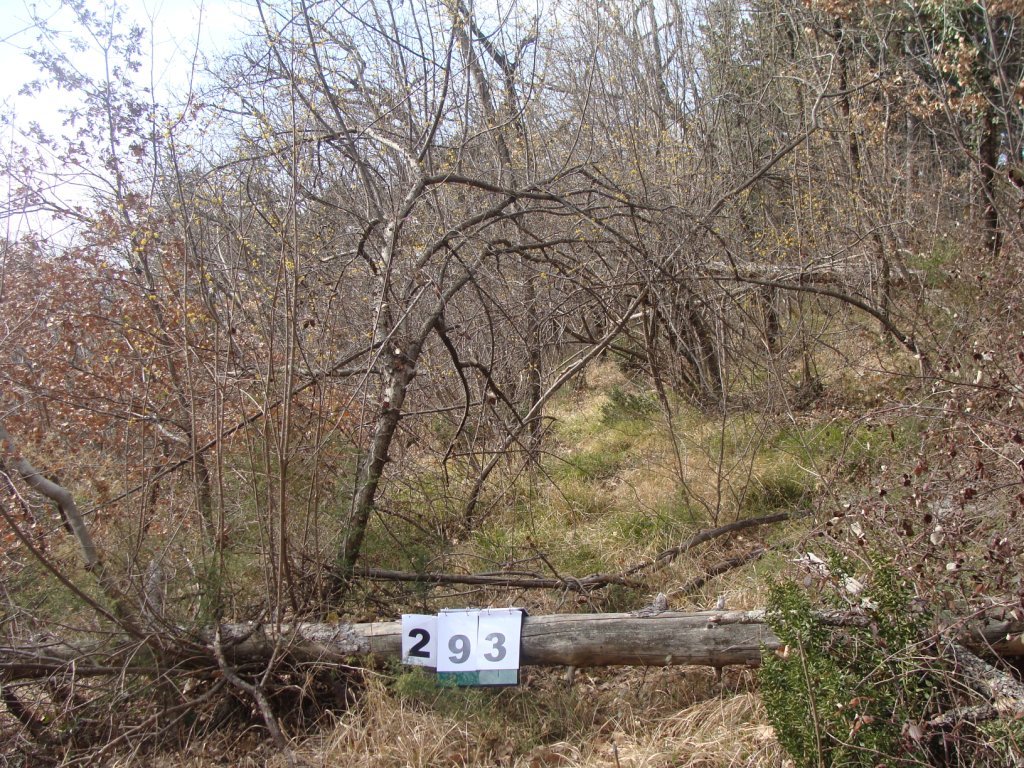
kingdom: Plantae
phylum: Tracheophyta
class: Magnoliopsida
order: Cornales
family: Cornaceae
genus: Cornus
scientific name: Cornus mas
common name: Cornelian-cherry
